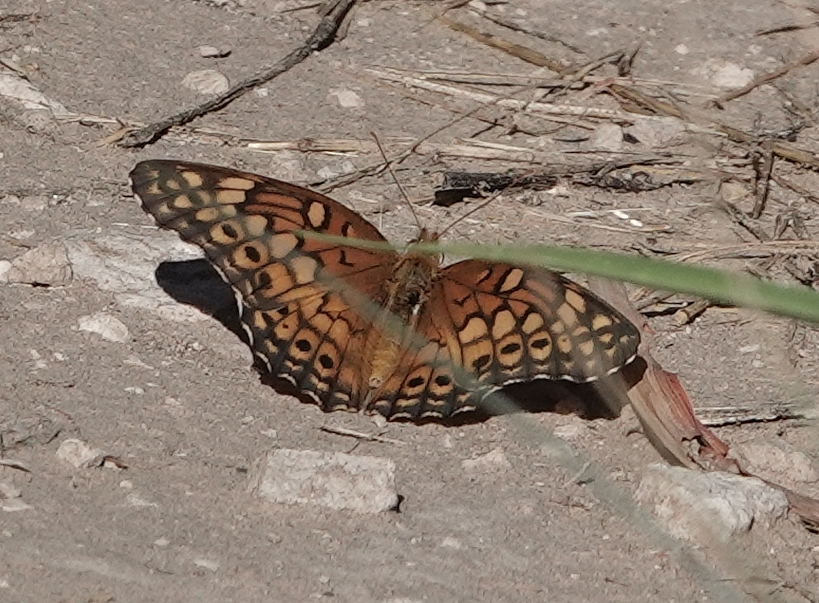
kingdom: Animalia
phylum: Arthropoda
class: Insecta
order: Lepidoptera
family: Nymphalidae
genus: Euptoieta
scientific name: Euptoieta claudia
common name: Variegated fritillary
